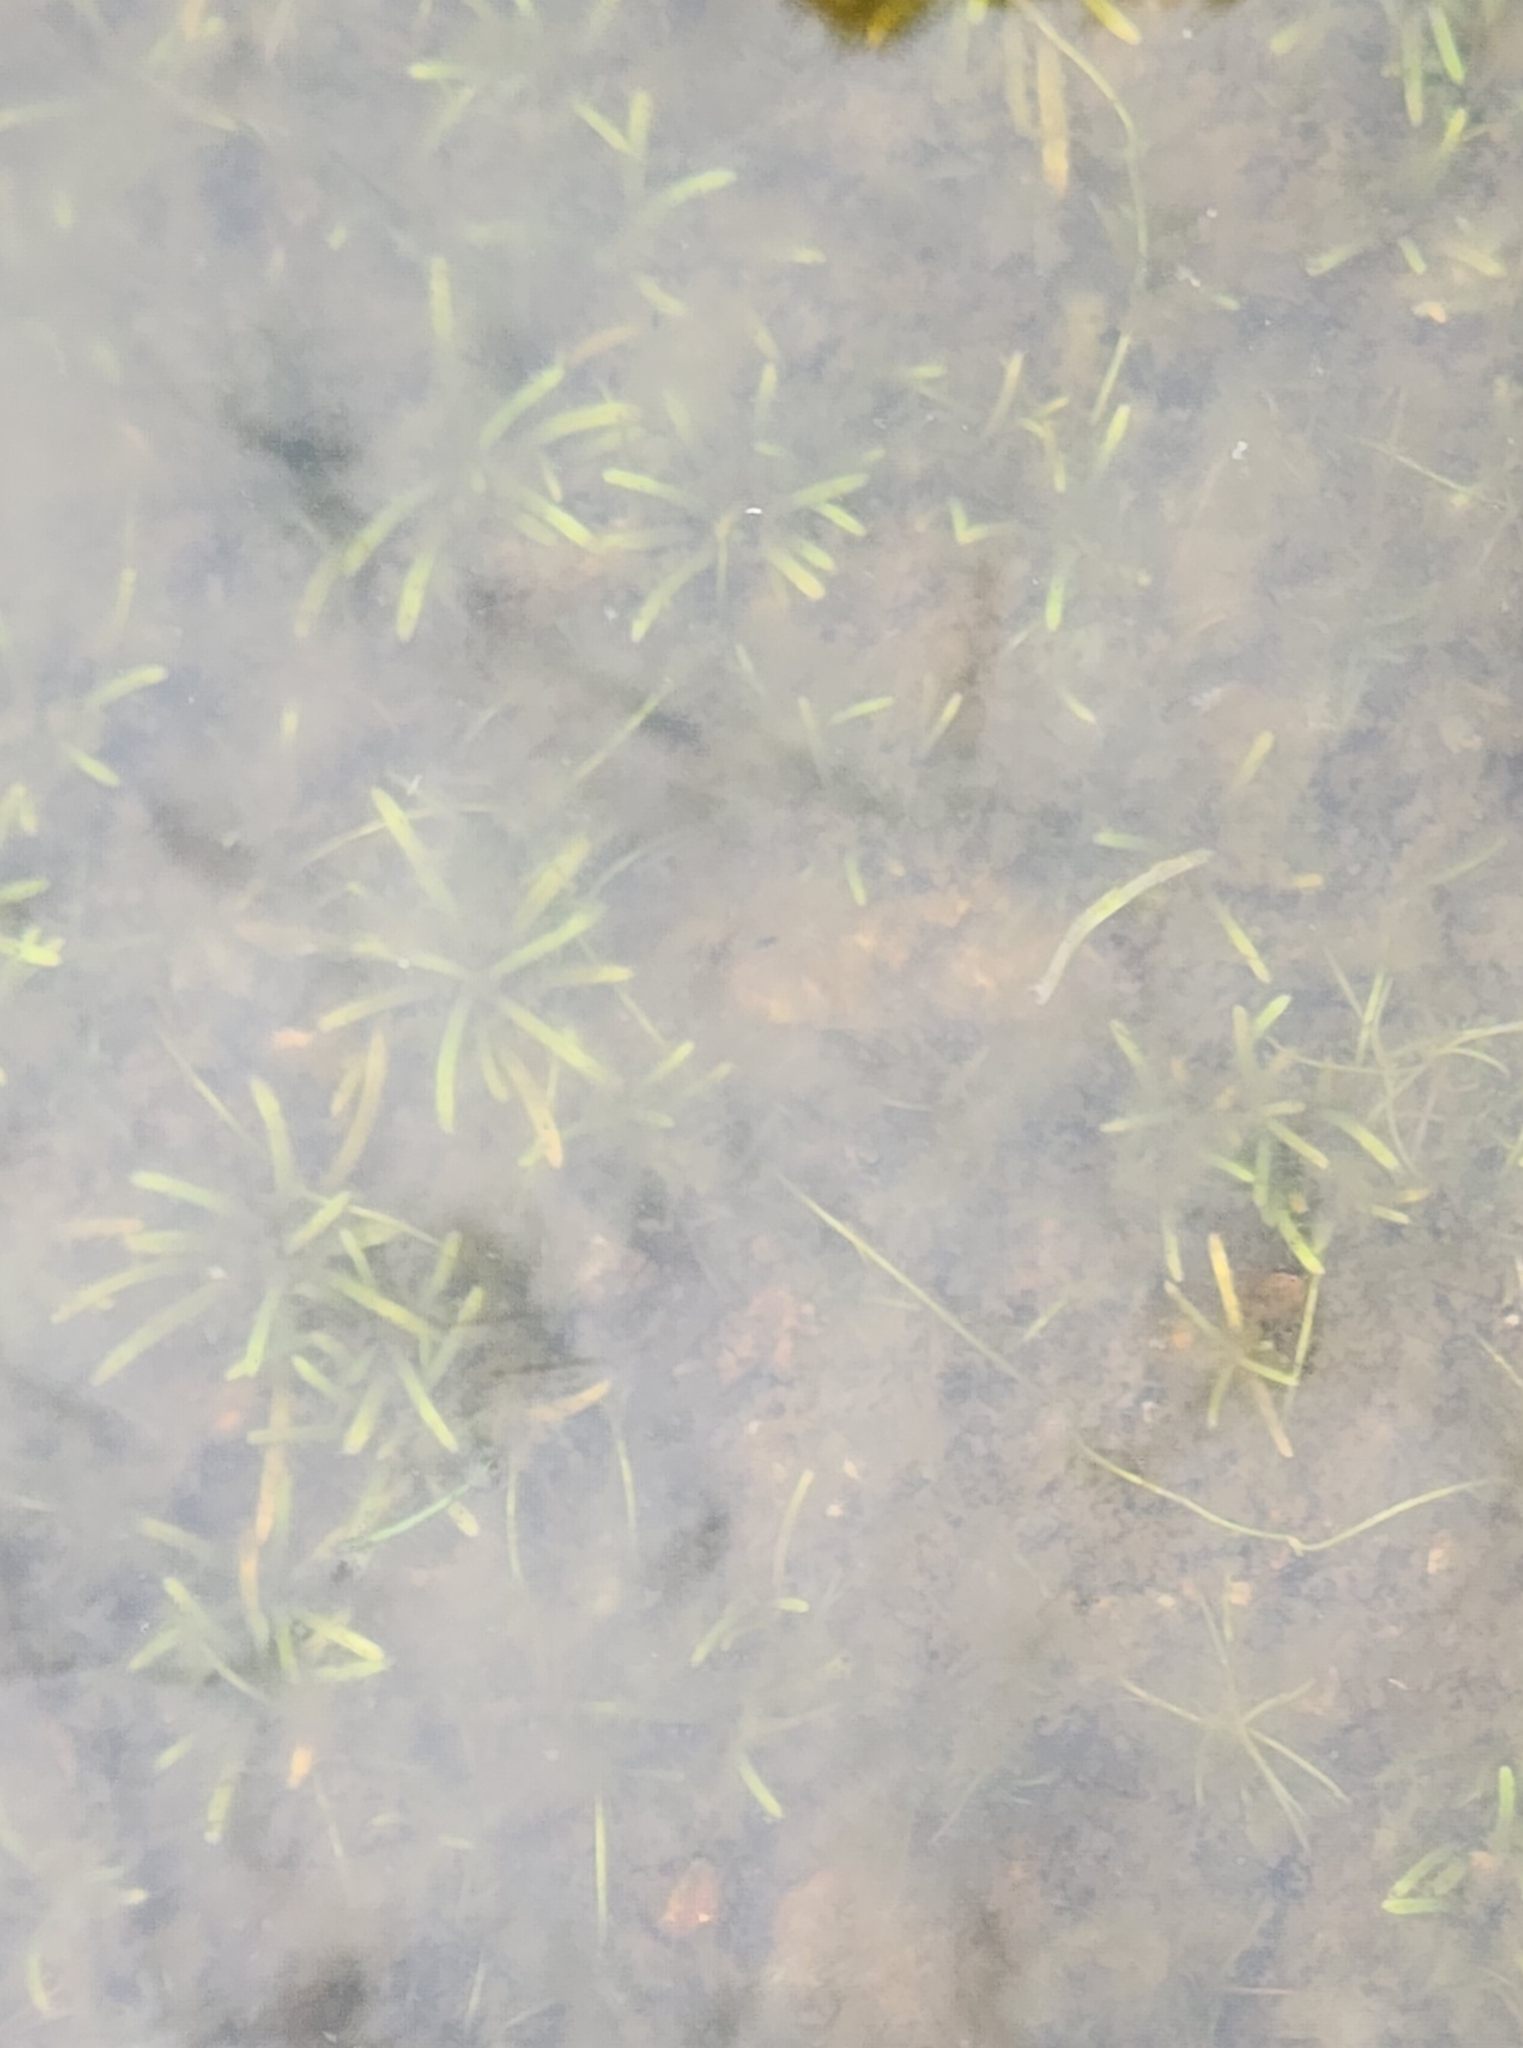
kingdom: Plantae
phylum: Tracheophyta
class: Magnoliopsida
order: Asterales
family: Campanulaceae
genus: Lobelia
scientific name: Lobelia dortmanna
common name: Water lobelia
